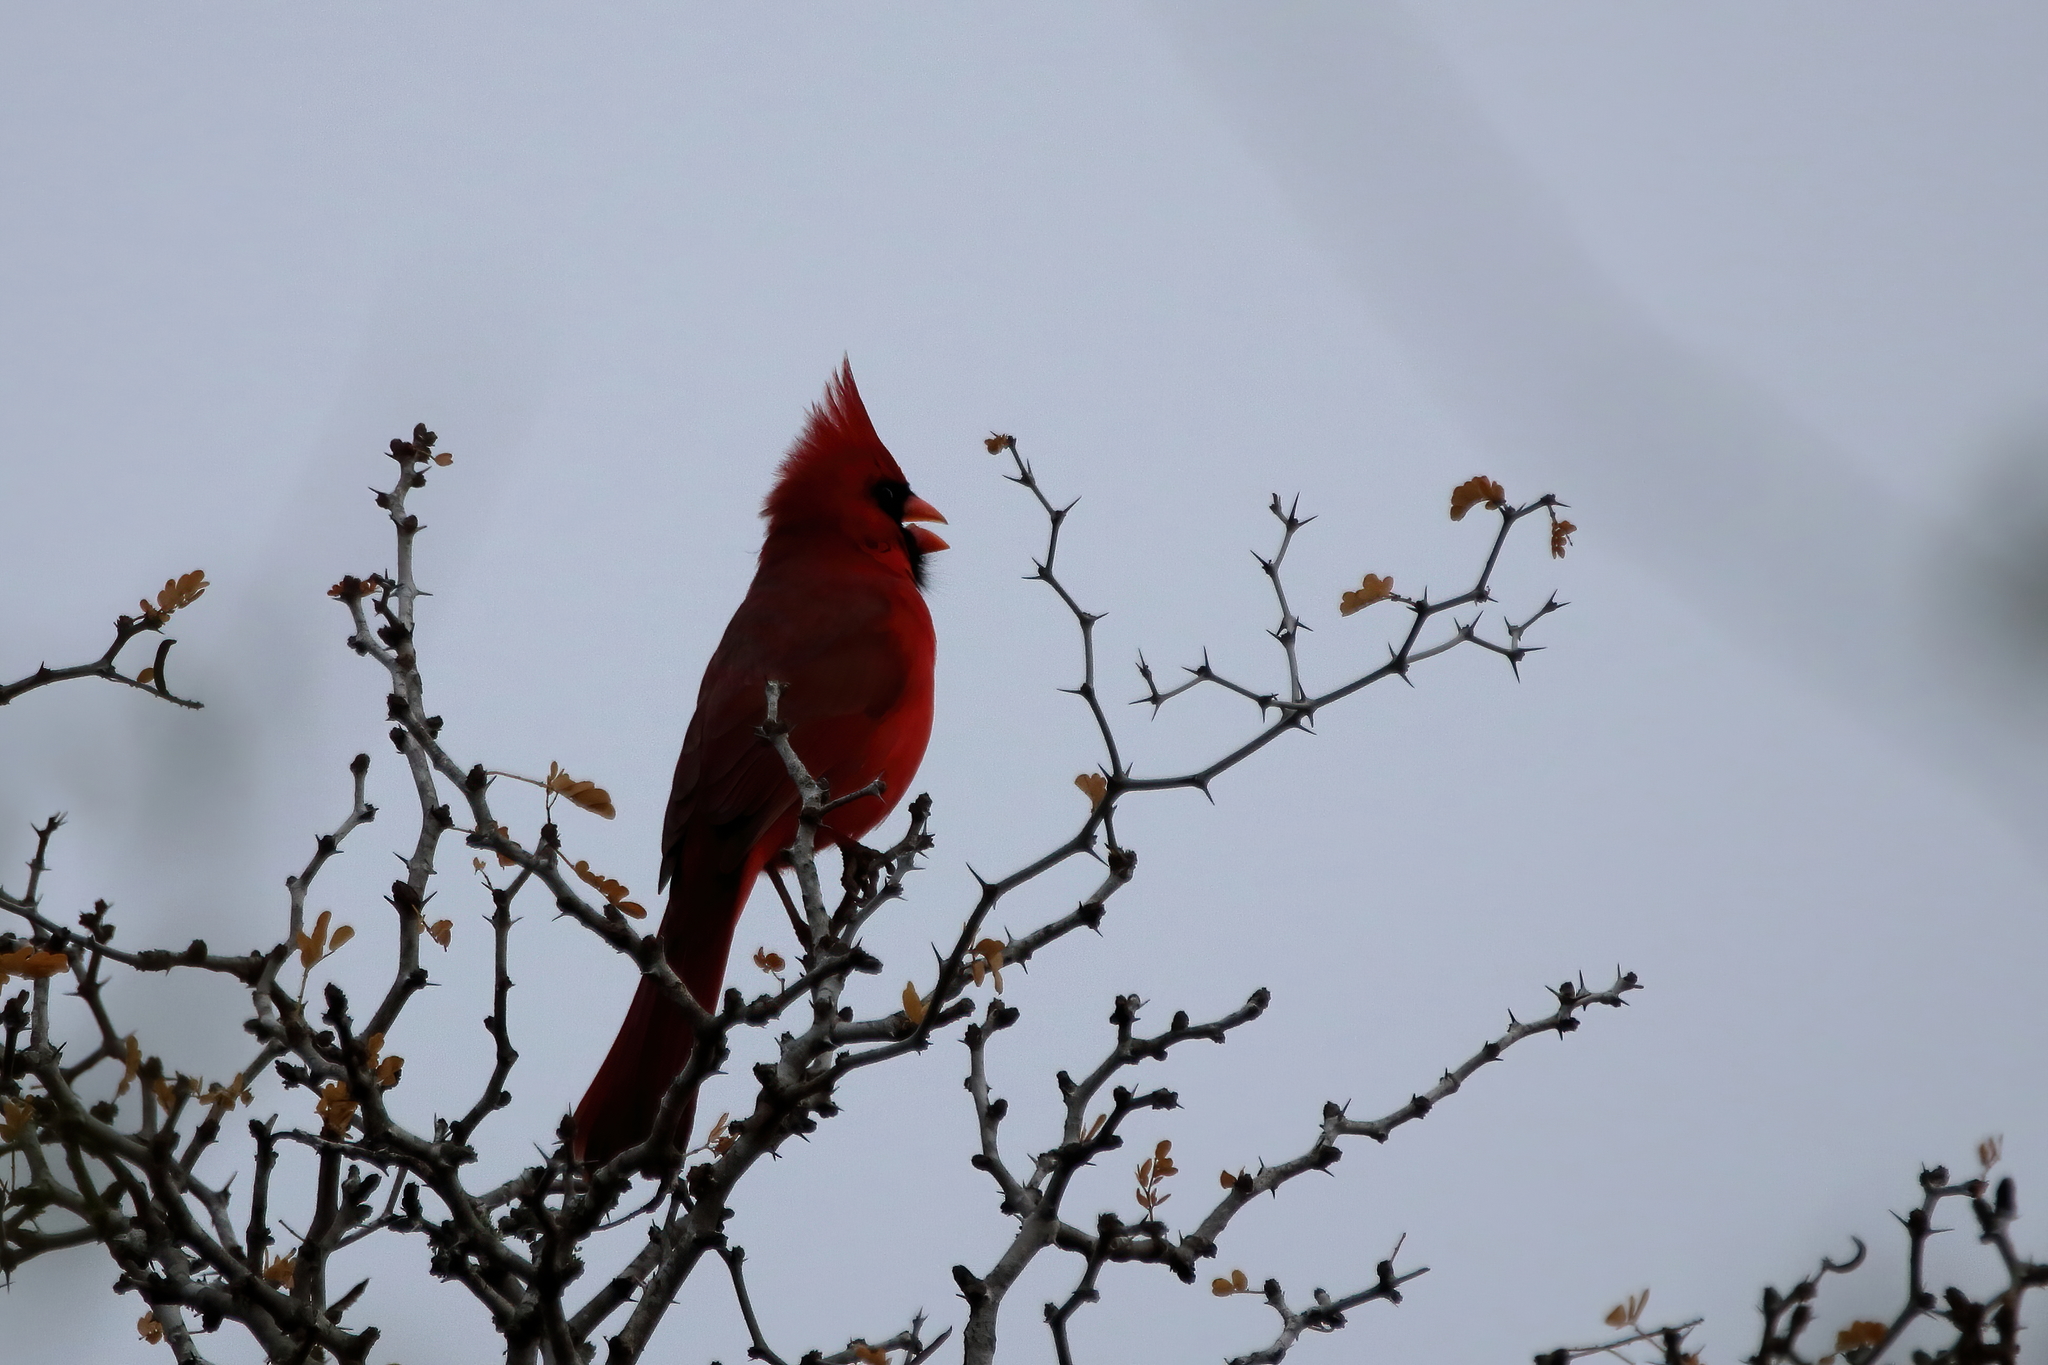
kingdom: Animalia
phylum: Chordata
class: Aves
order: Passeriformes
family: Cardinalidae
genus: Cardinalis
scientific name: Cardinalis cardinalis
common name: Northern cardinal
